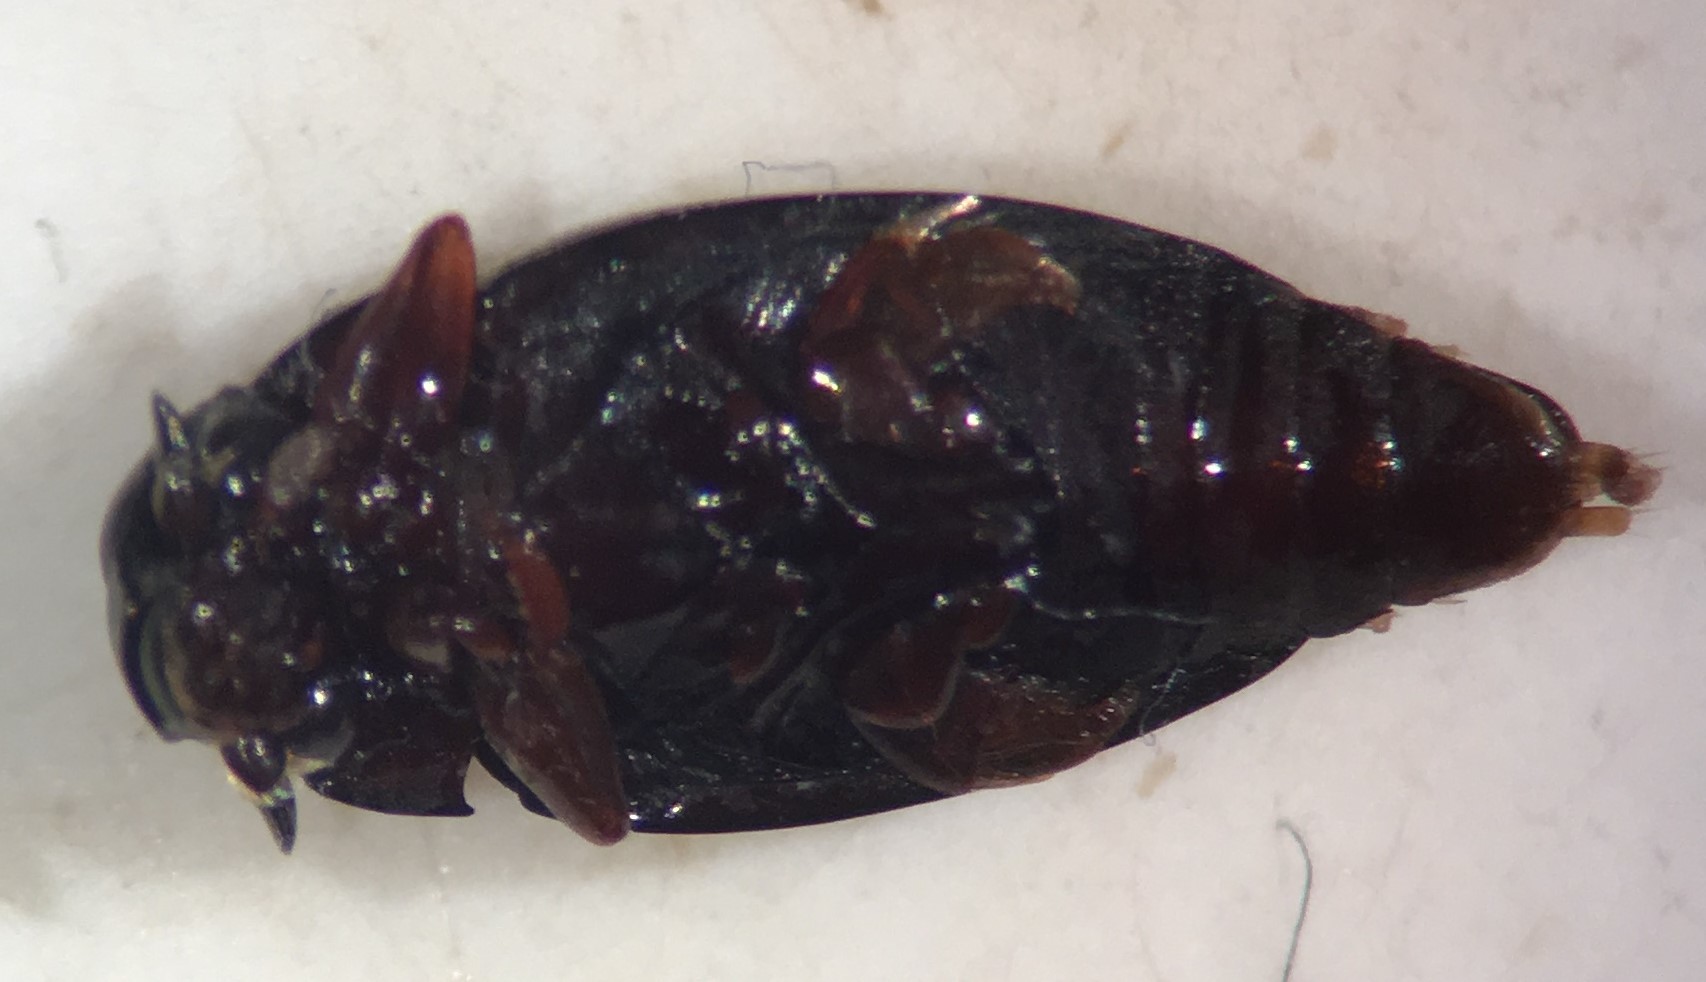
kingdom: Animalia
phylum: Arthropoda
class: Insecta
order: Coleoptera
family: Gyrinidae
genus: Gyrinus
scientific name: Gyrinus woodruffi
